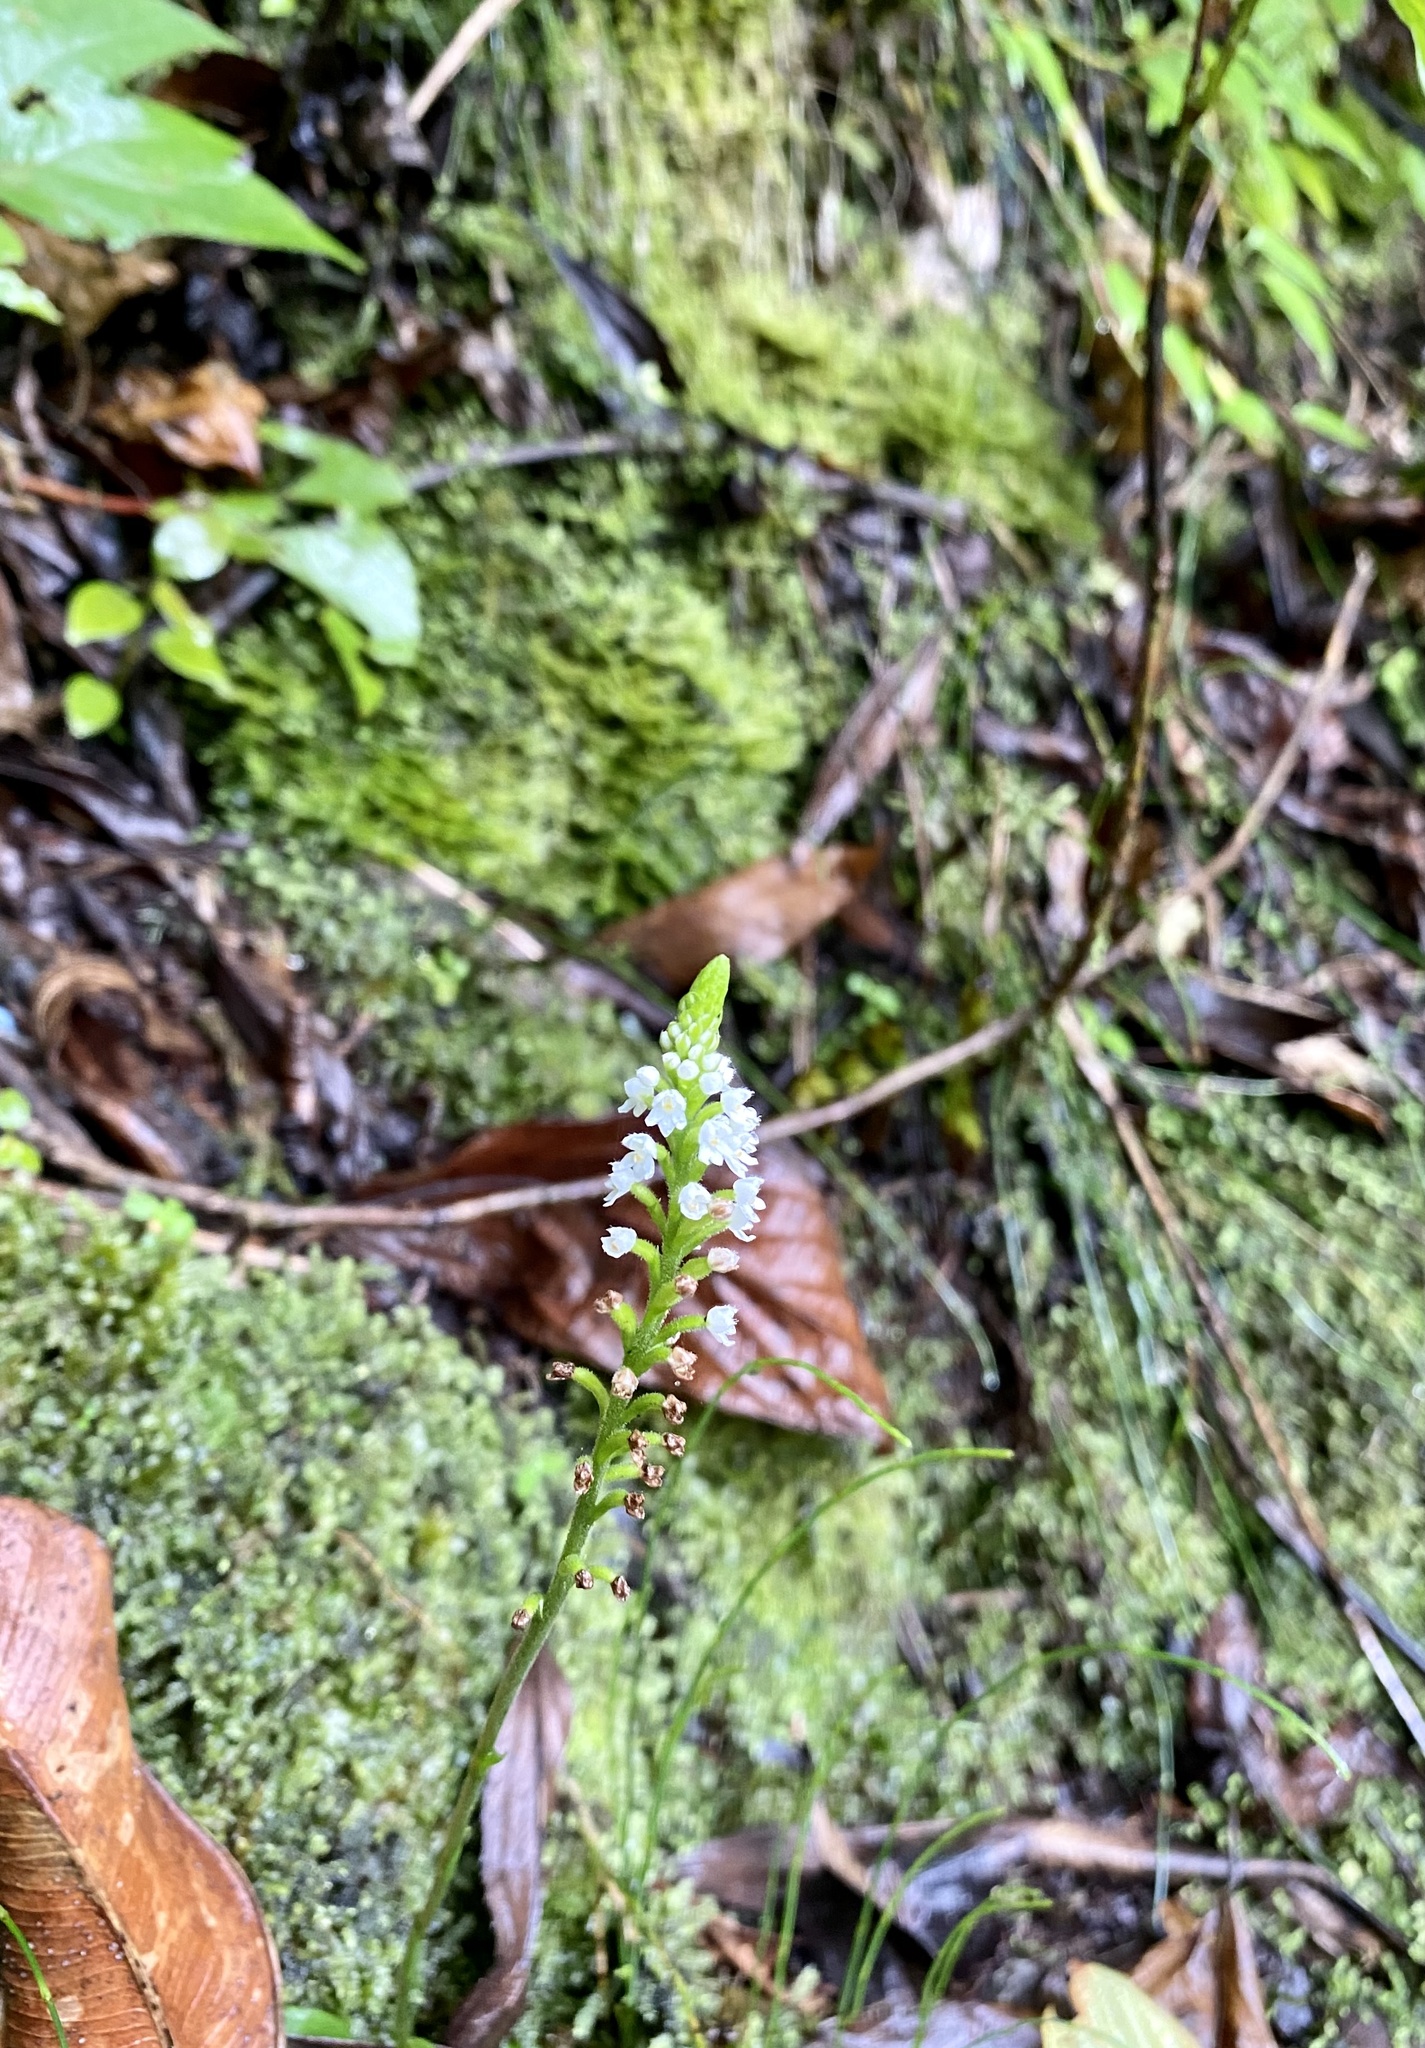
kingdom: Plantae
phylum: Tracheophyta
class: Liliopsida
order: Asparagales
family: Orchidaceae
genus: Ponthieva
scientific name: Ponthieva fertilis
